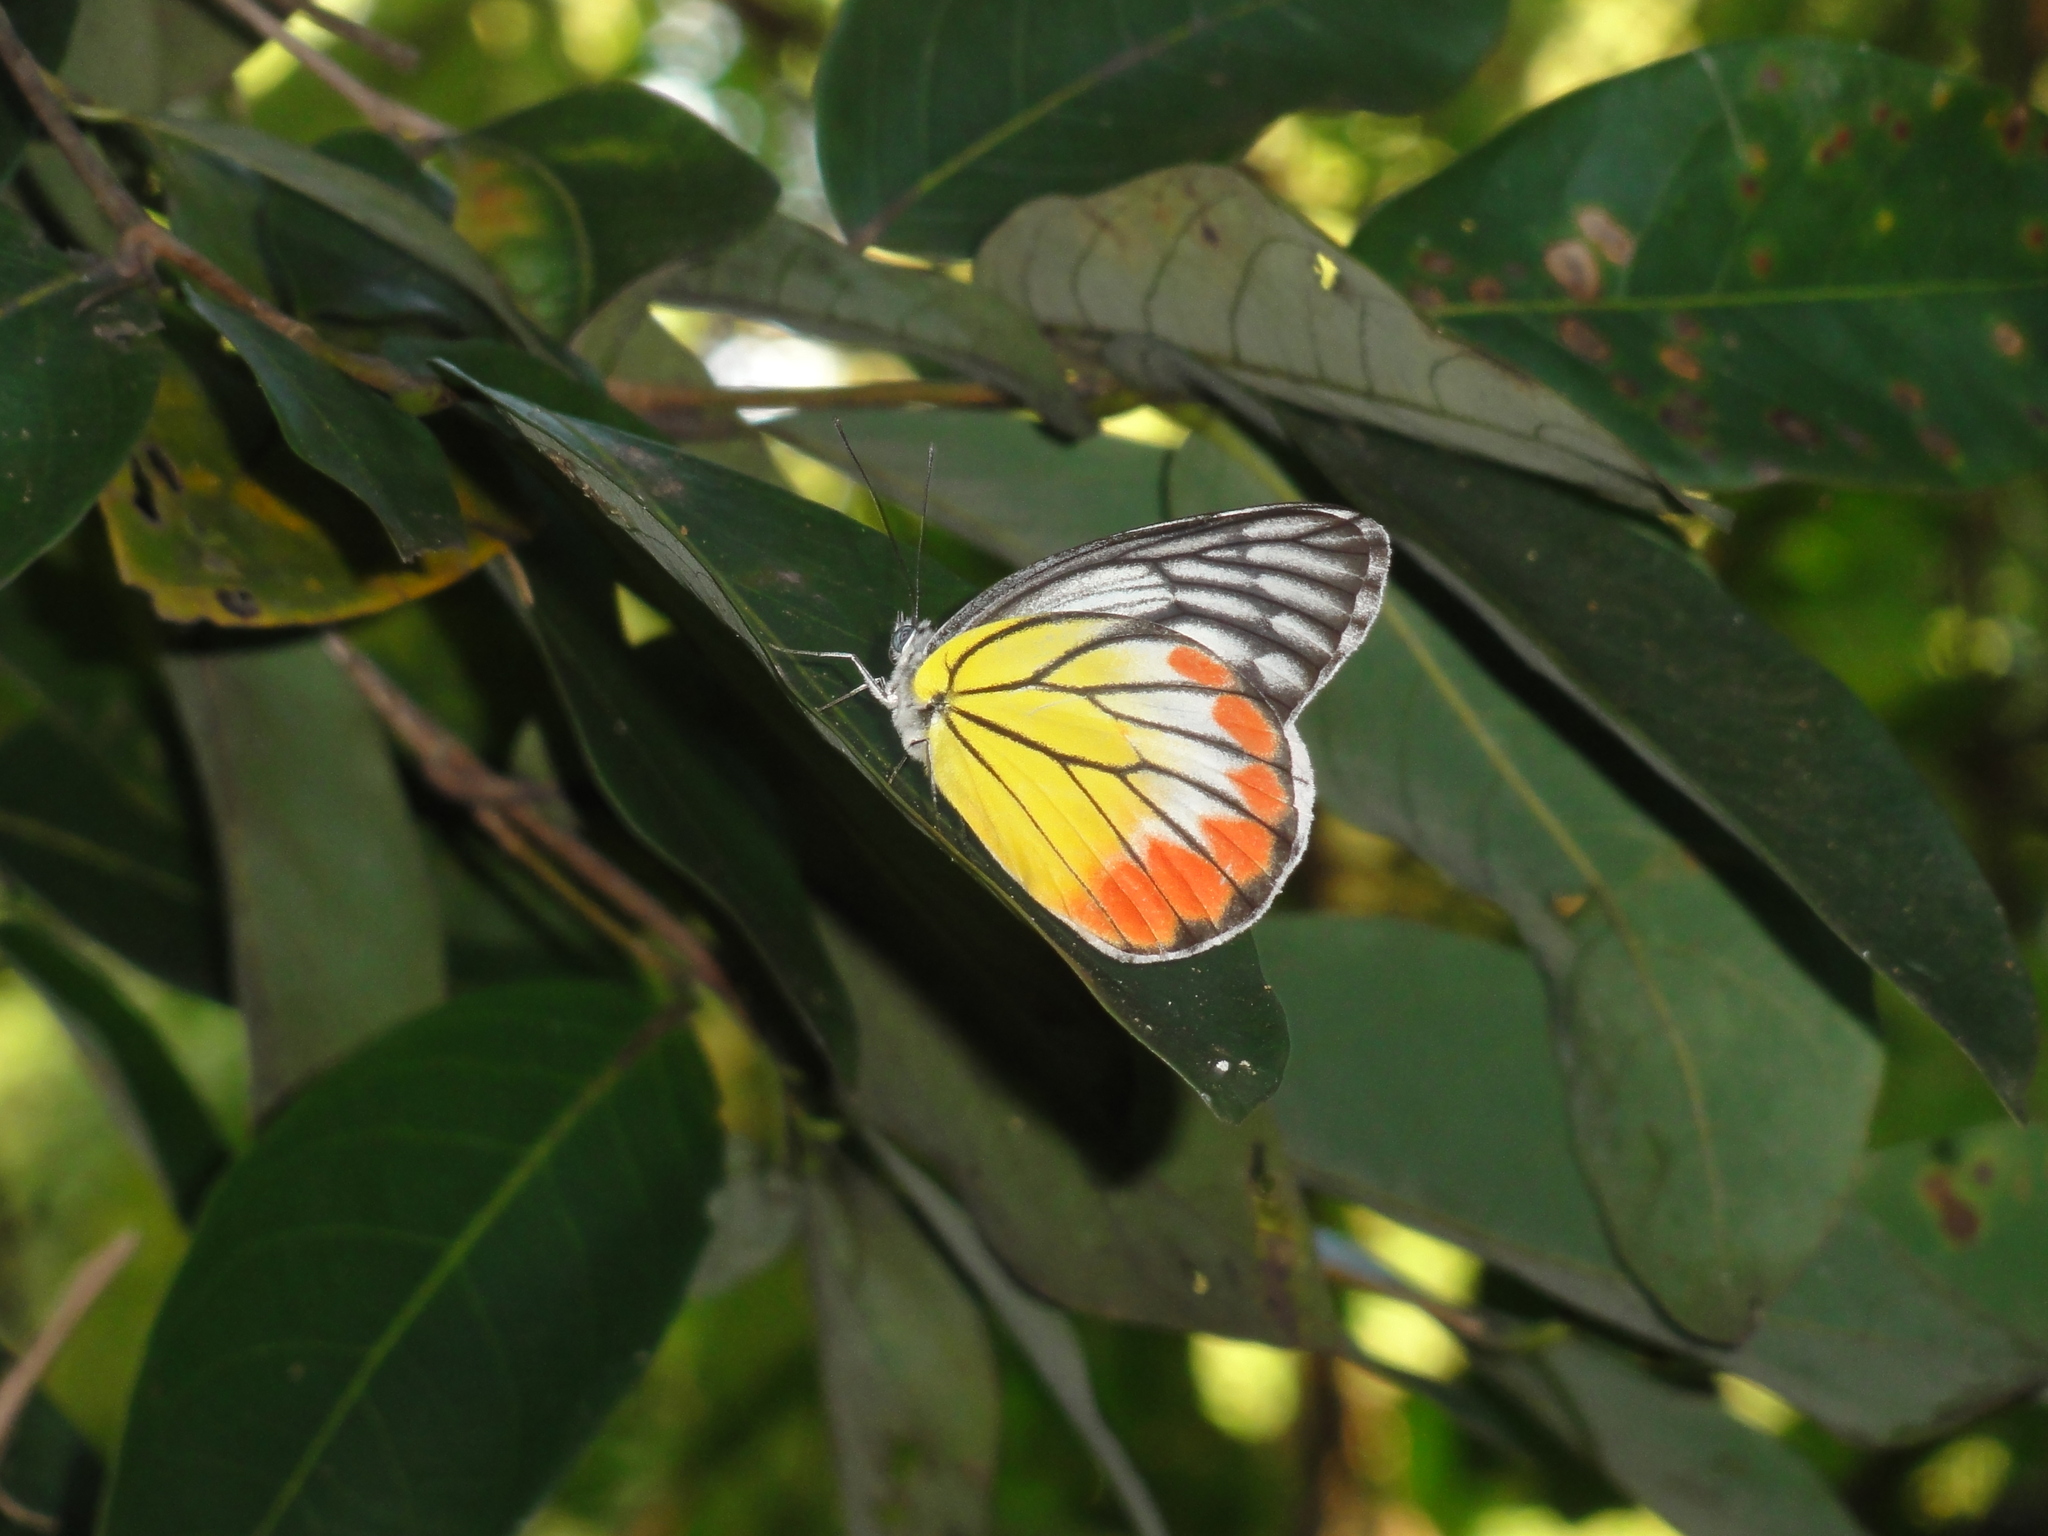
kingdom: Animalia
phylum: Arthropoda
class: Insecta
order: Lepidoptera
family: Pieridae
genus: Delias
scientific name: Delias hyparete
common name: Painted jezebel
